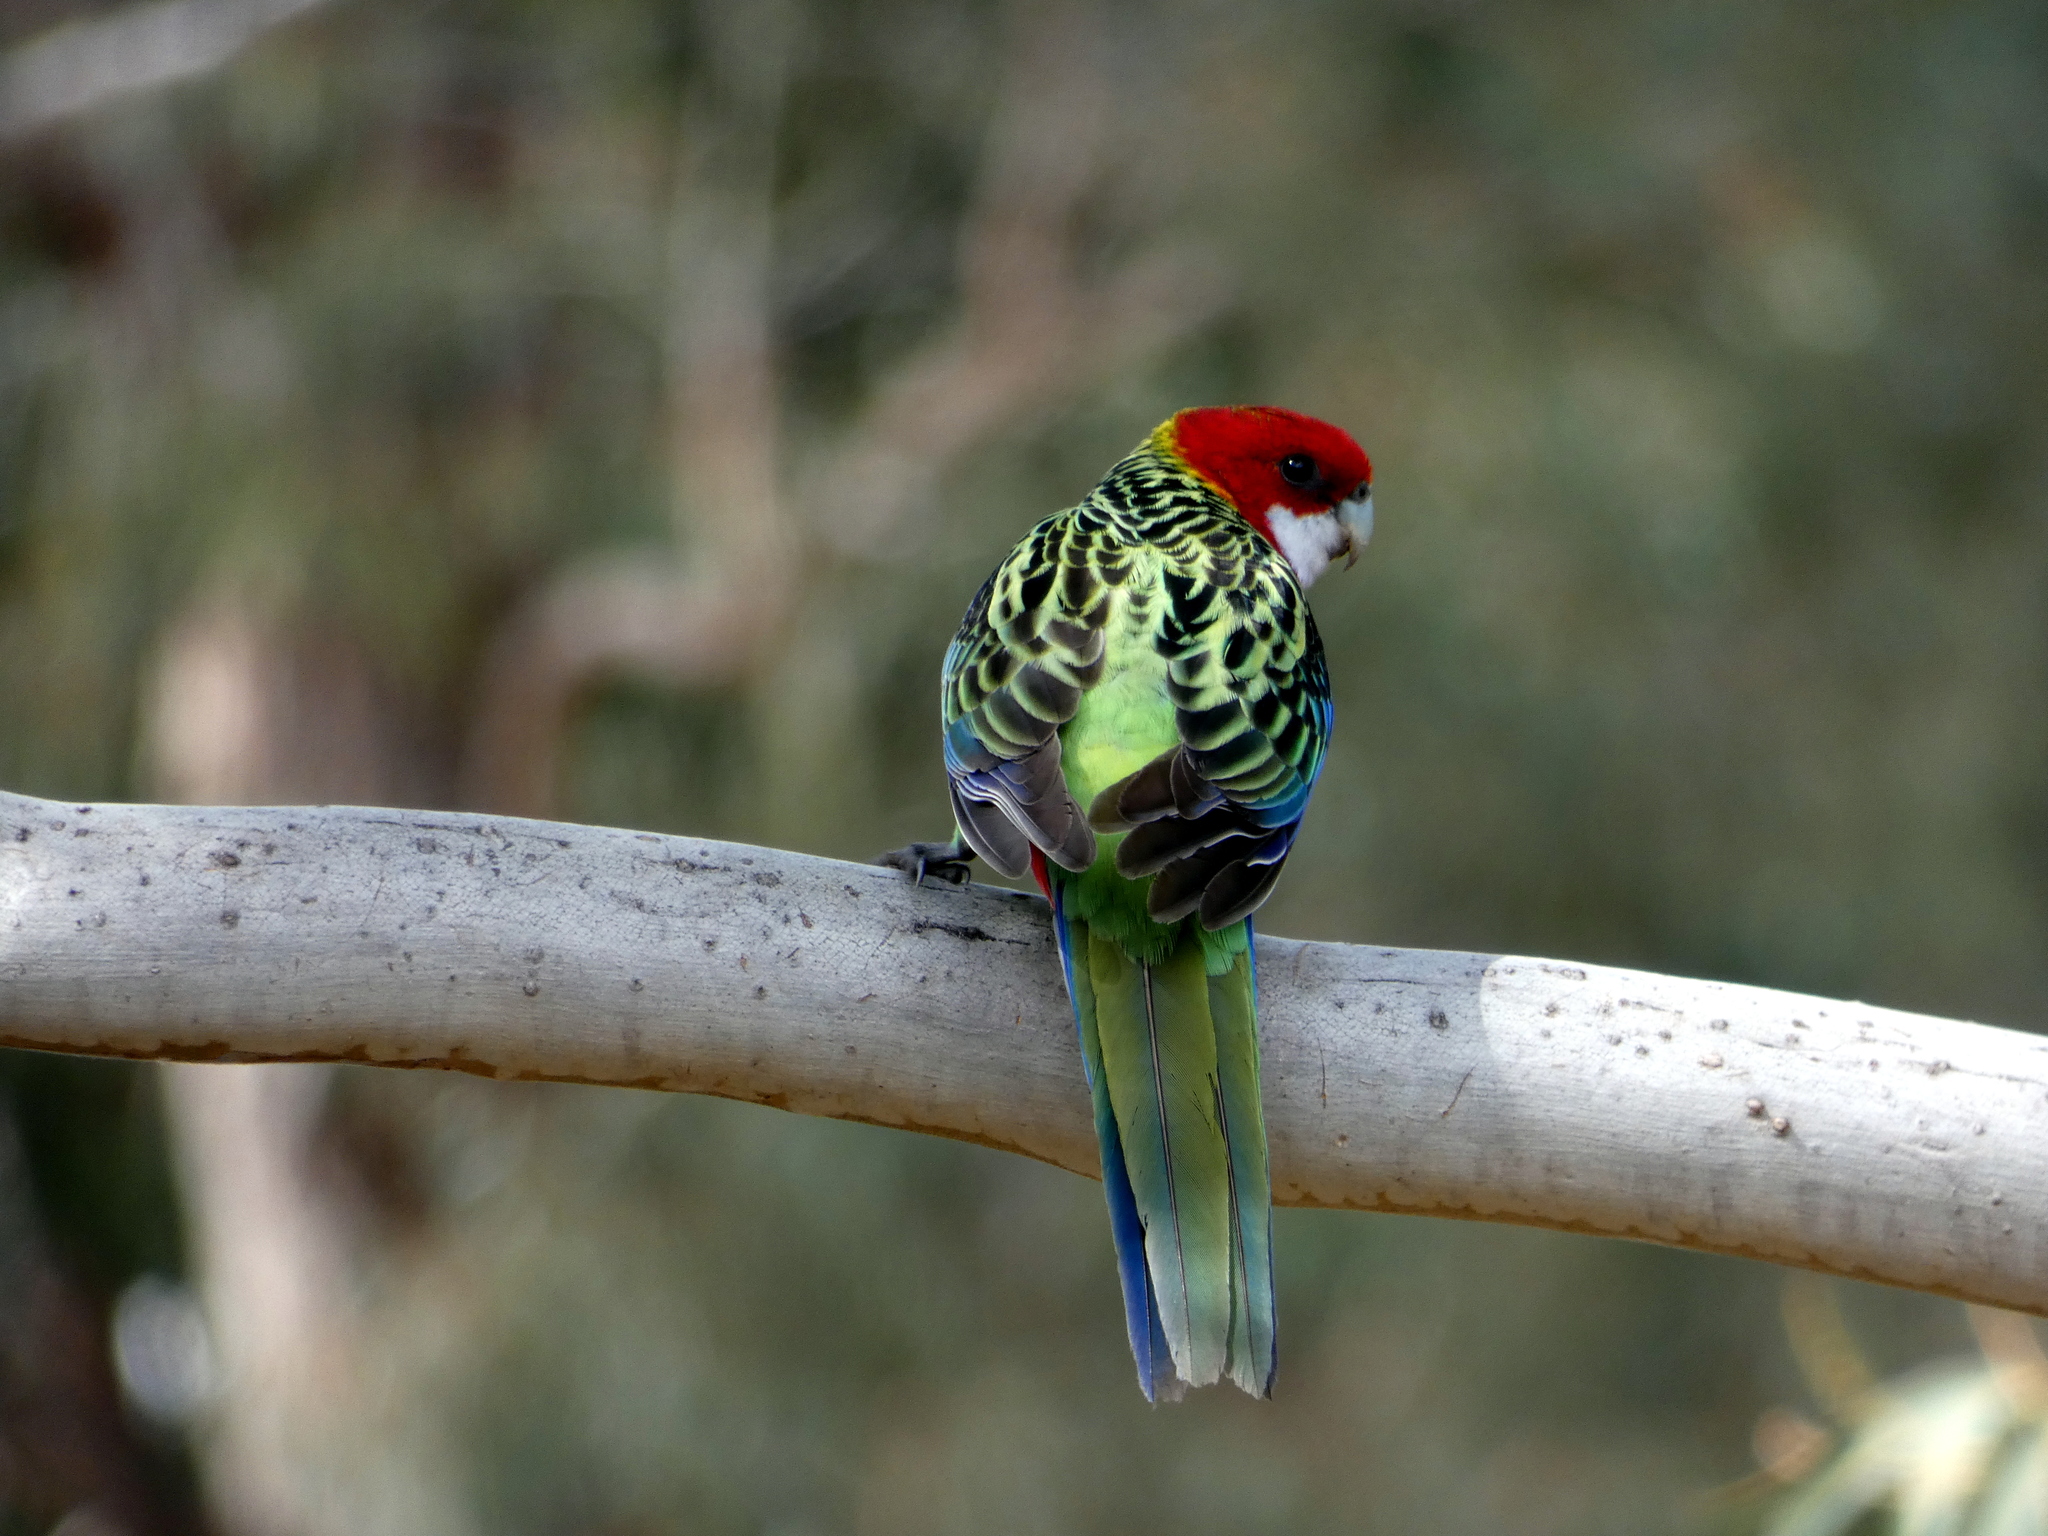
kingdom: Animalia
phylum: Chordata
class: Aves
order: Psittaciformes
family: Psittacidae
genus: Platycercus
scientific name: Platycercus eximius
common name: Eastern rosella
